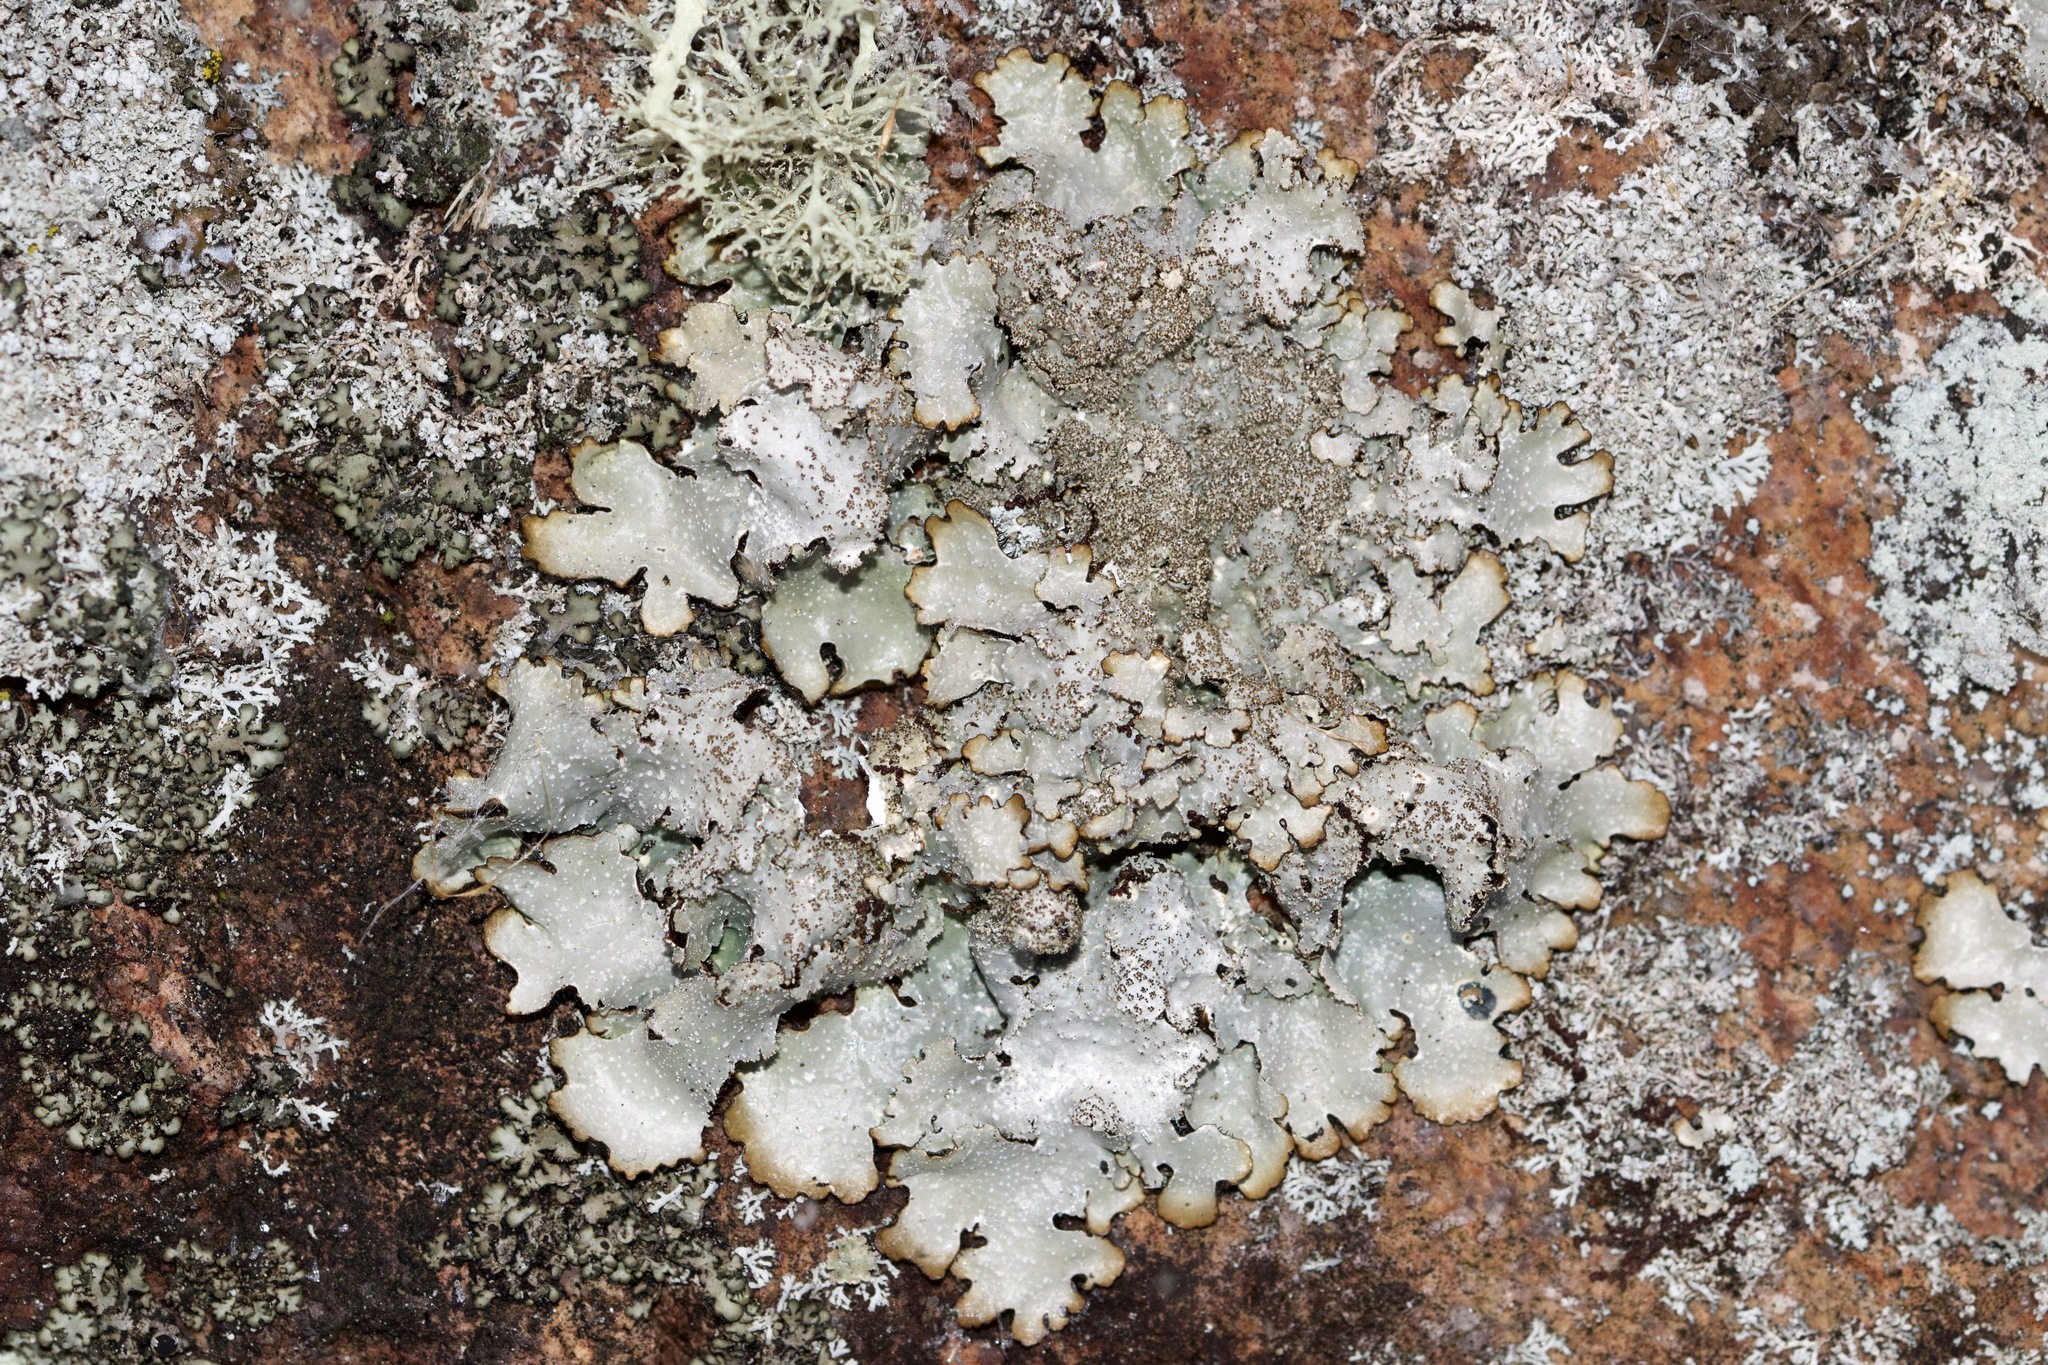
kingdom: Fungi
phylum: Ascomycota
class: Lecanoromycetes
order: Lecanorales
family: Parmeliaceae
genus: Punctelia
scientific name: Punctelia rudecta
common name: Rough speckled shield lichen
